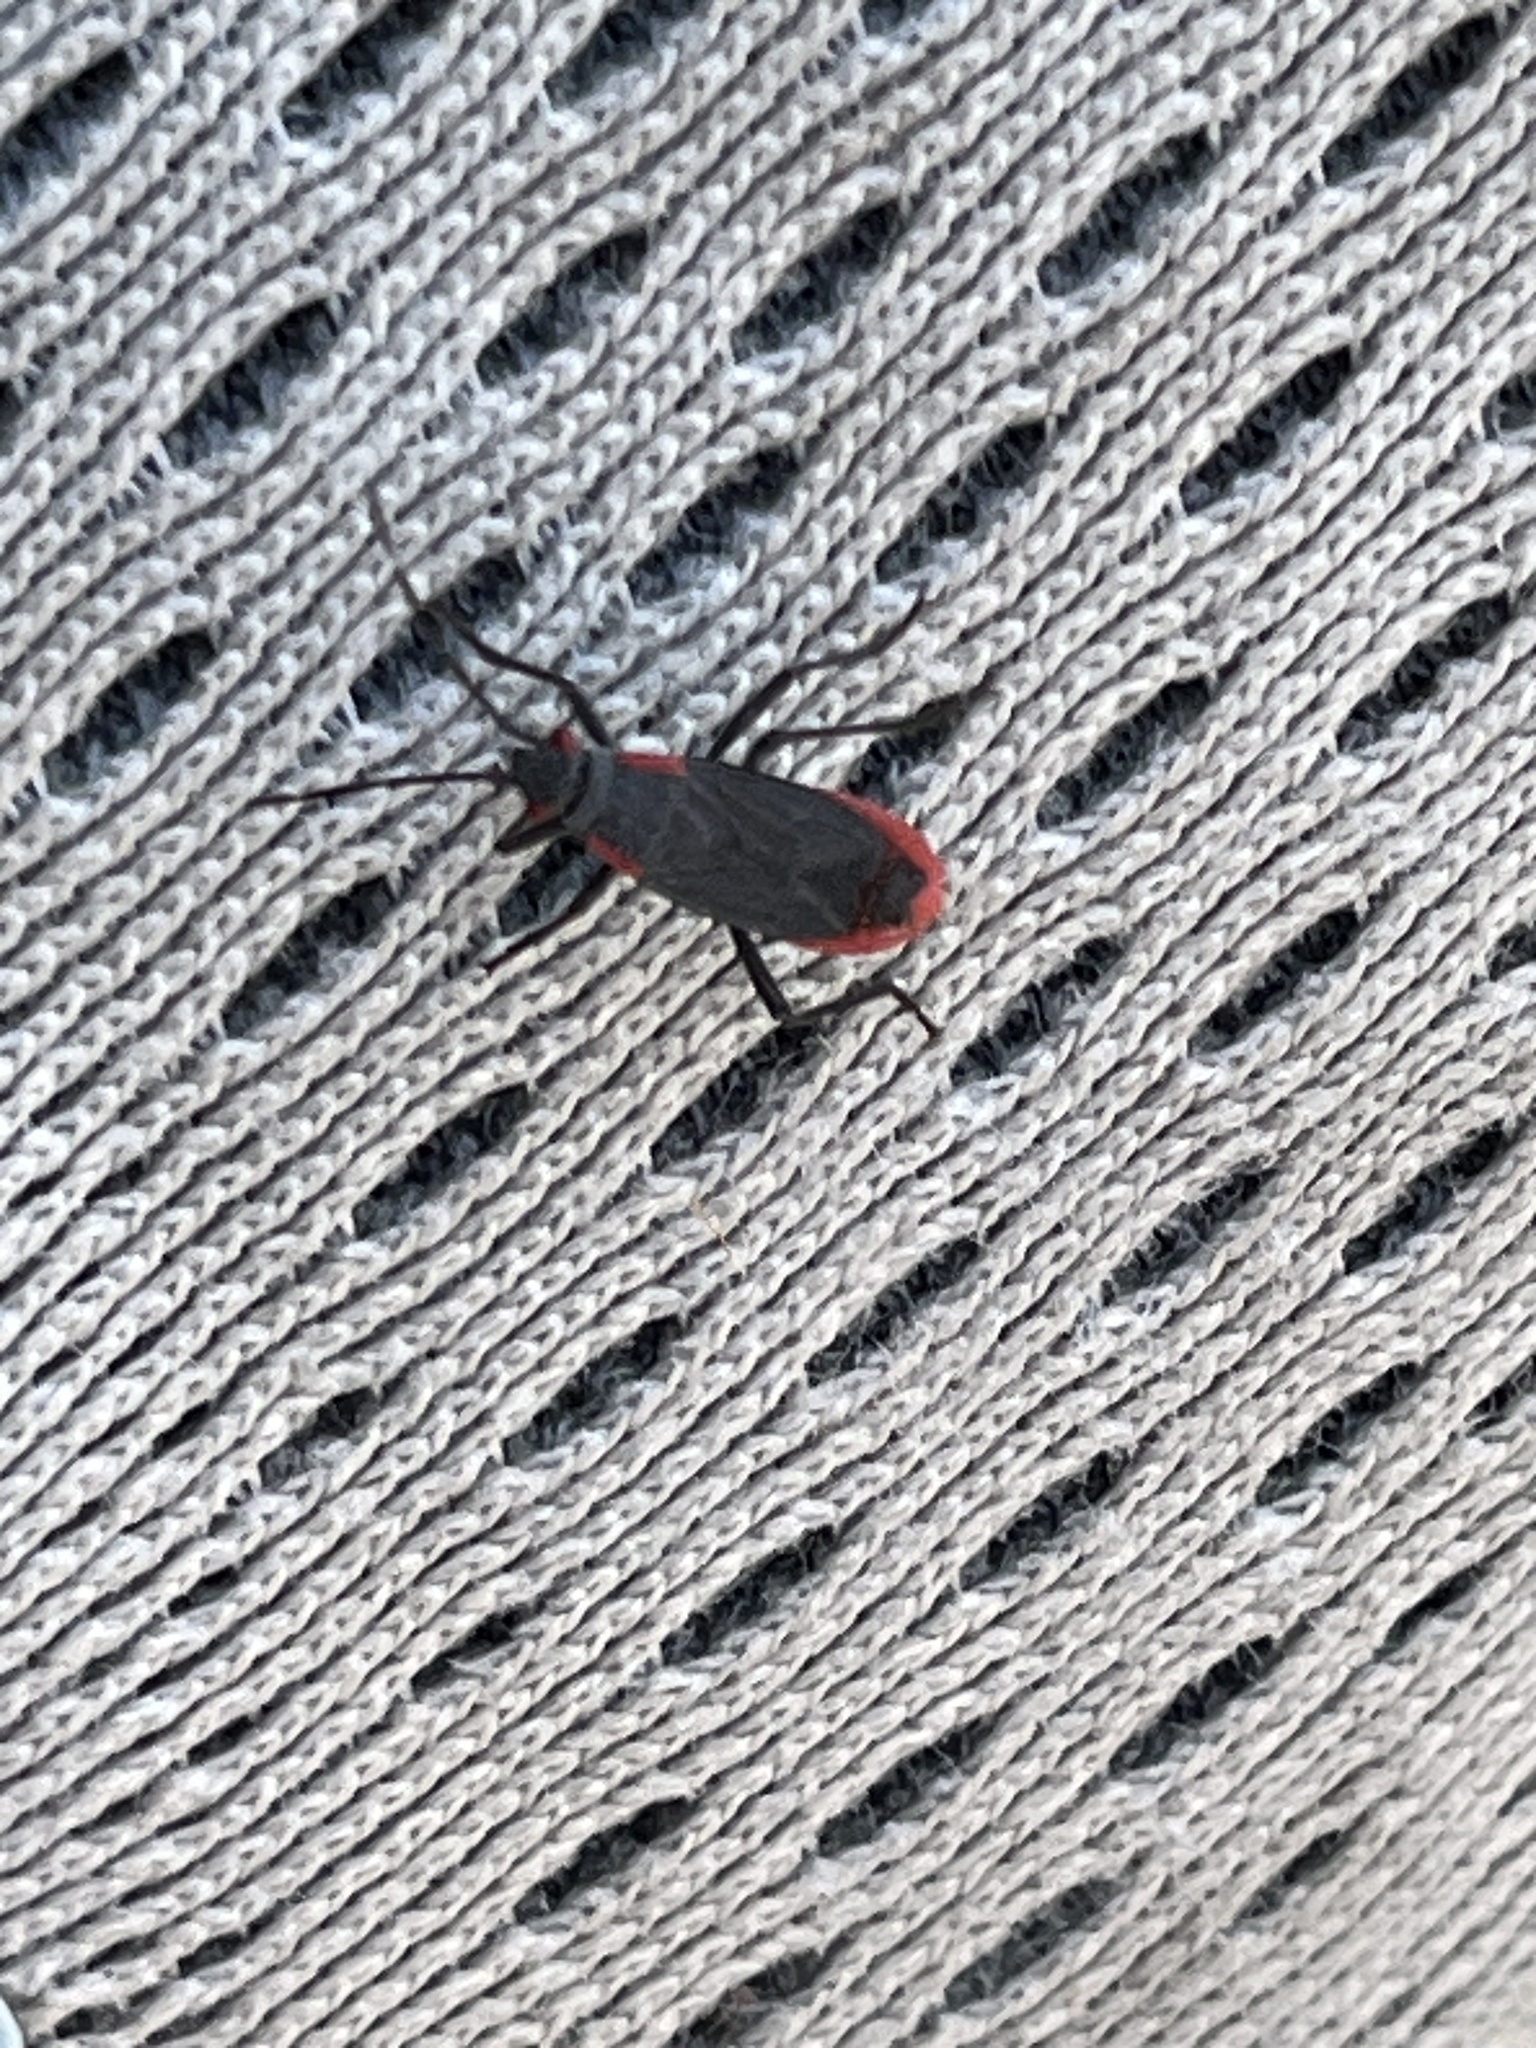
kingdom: Animalia
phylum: Arthropoda
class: Insecta
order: Hemiptera
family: Rhopalidae
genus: Jadera
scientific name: Jadera haematoloma
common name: Red-shouldered bug
